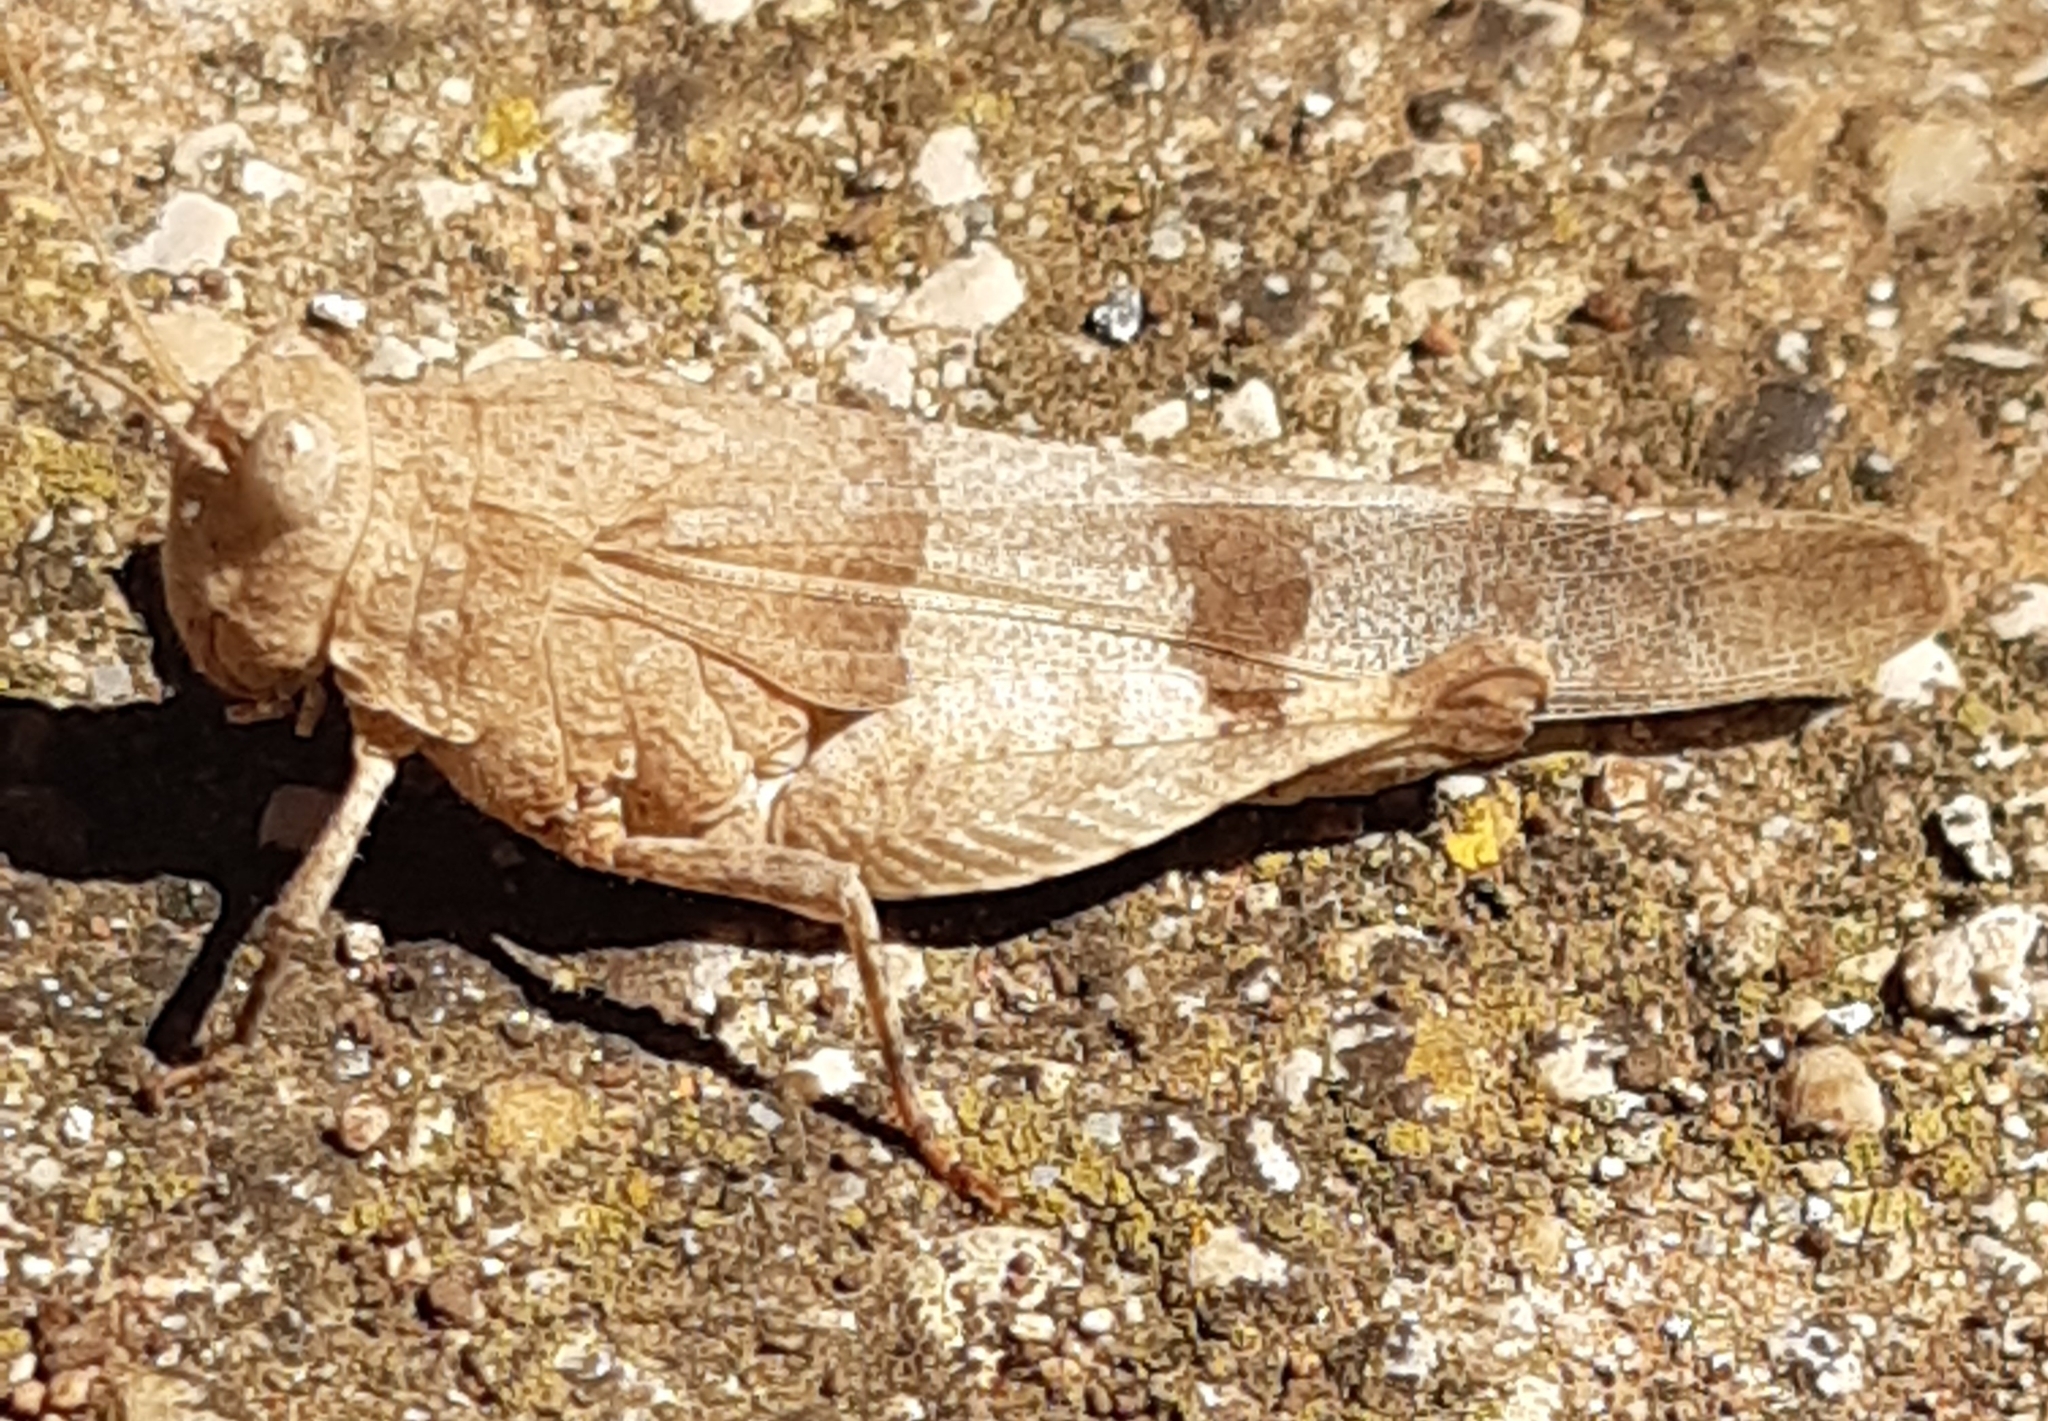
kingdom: Animalia
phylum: Arthropoda
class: Insecta
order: Orthoptera
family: Acrididae
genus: Oedipoda
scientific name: Oedipoda caerulescens
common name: Blue-winged grasshopper
